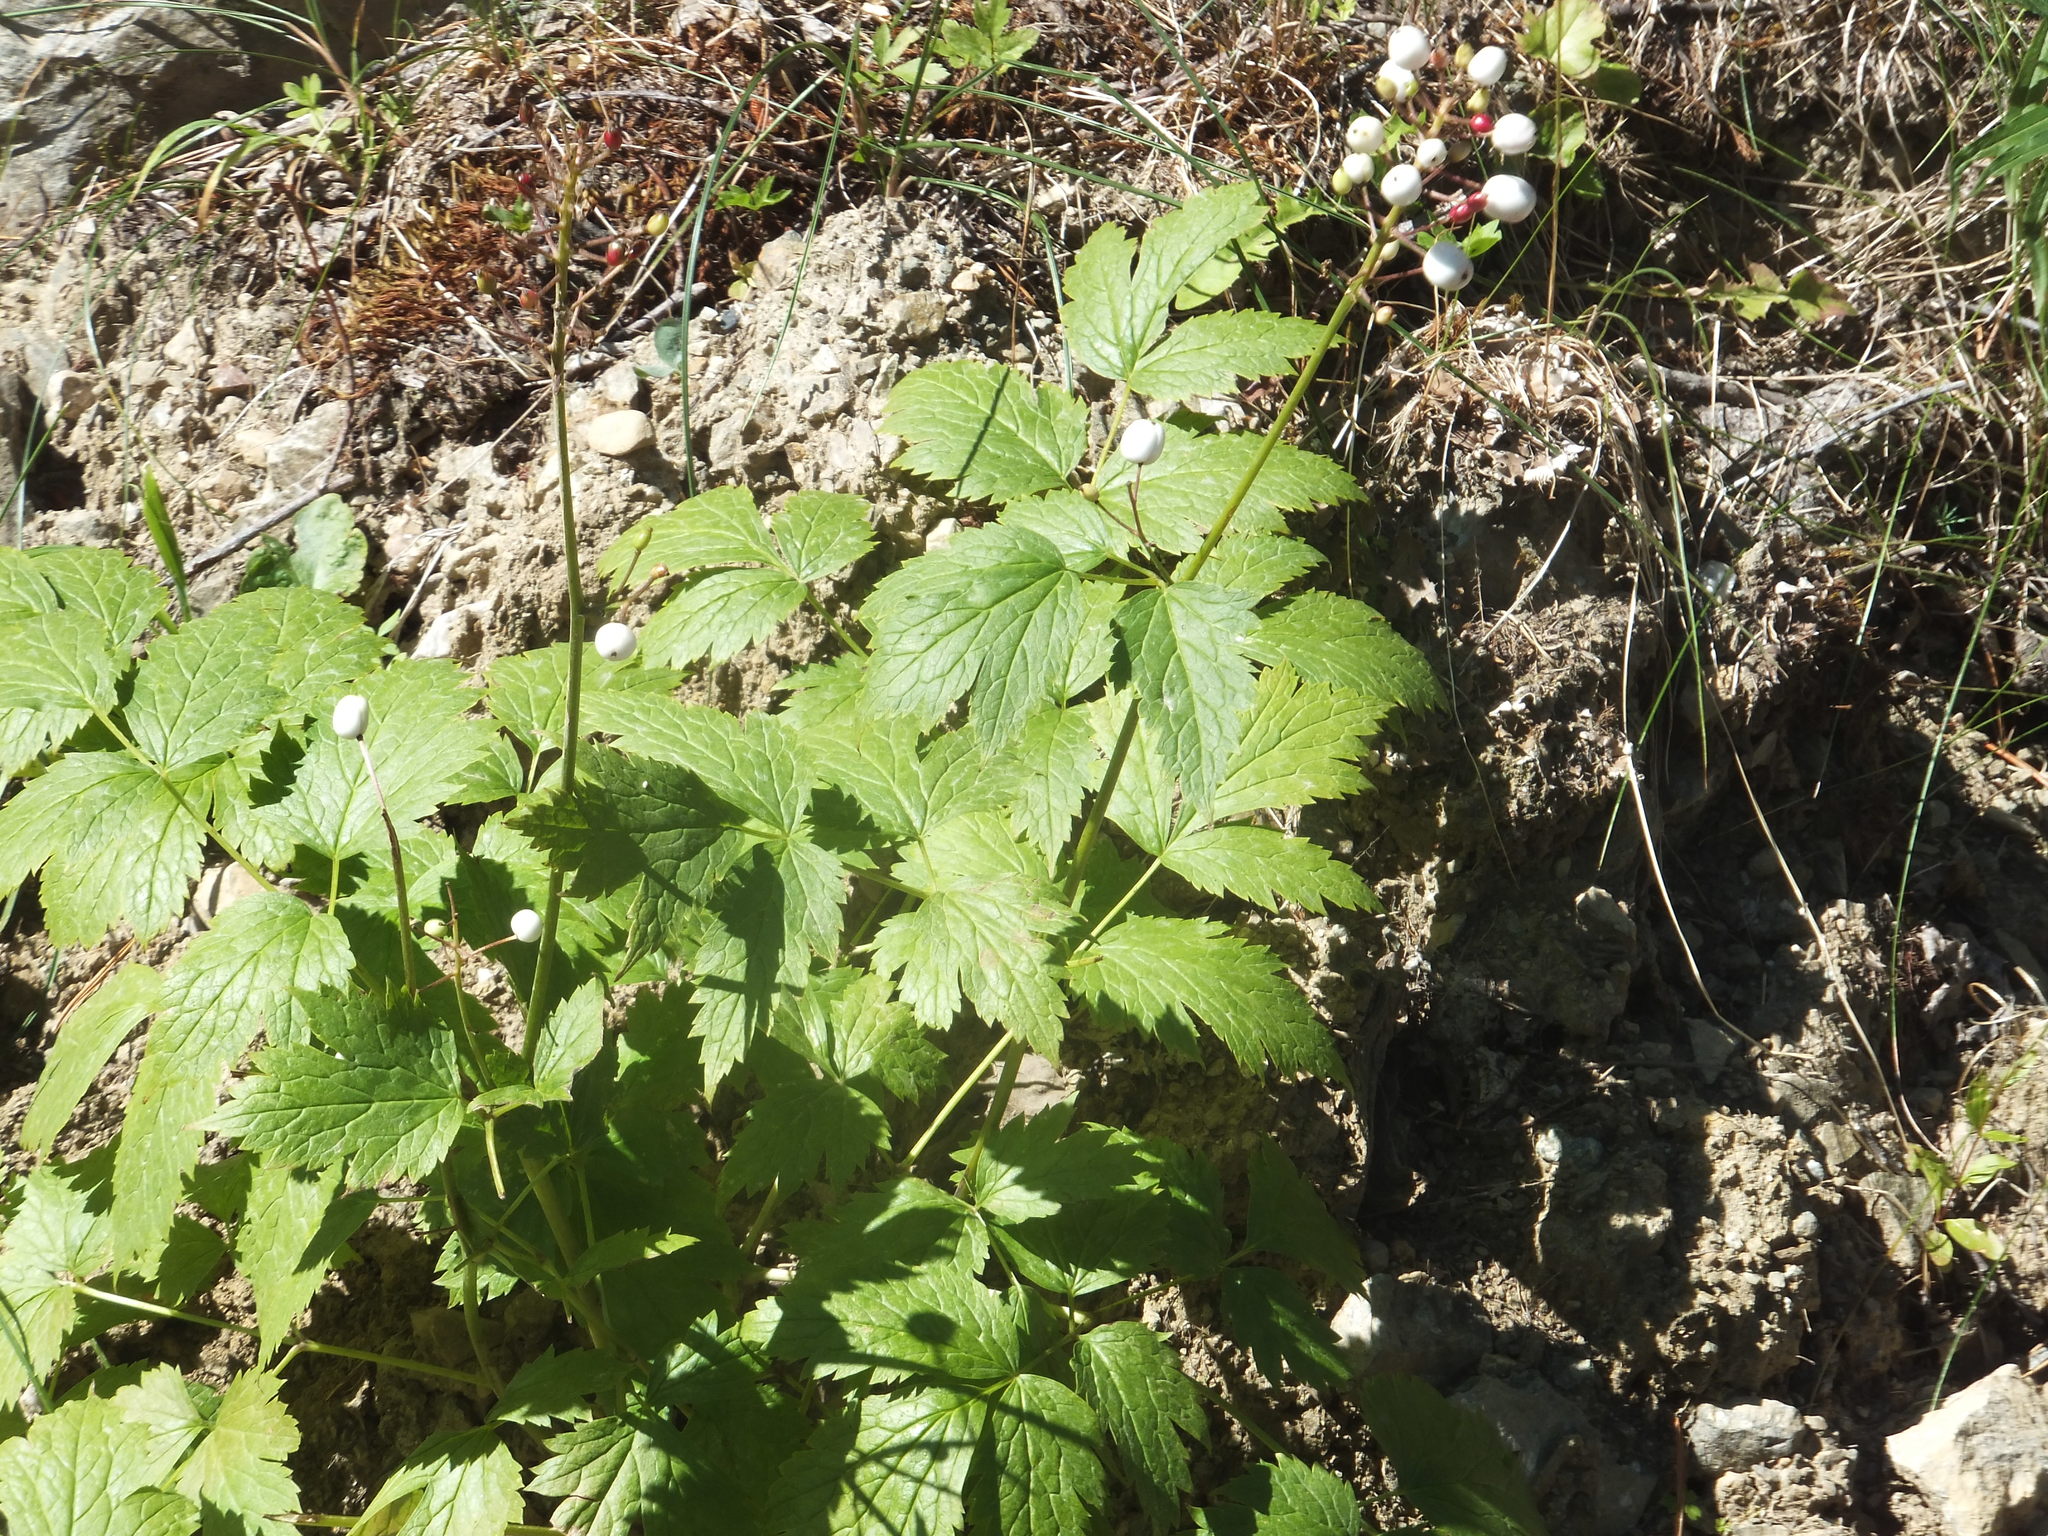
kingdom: Plantae
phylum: Tracheophyta
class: Magnoliopsida
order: Ranunculales
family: Ranunculaceae
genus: Actaea
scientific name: Actaea rubra
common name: Red baneberry
